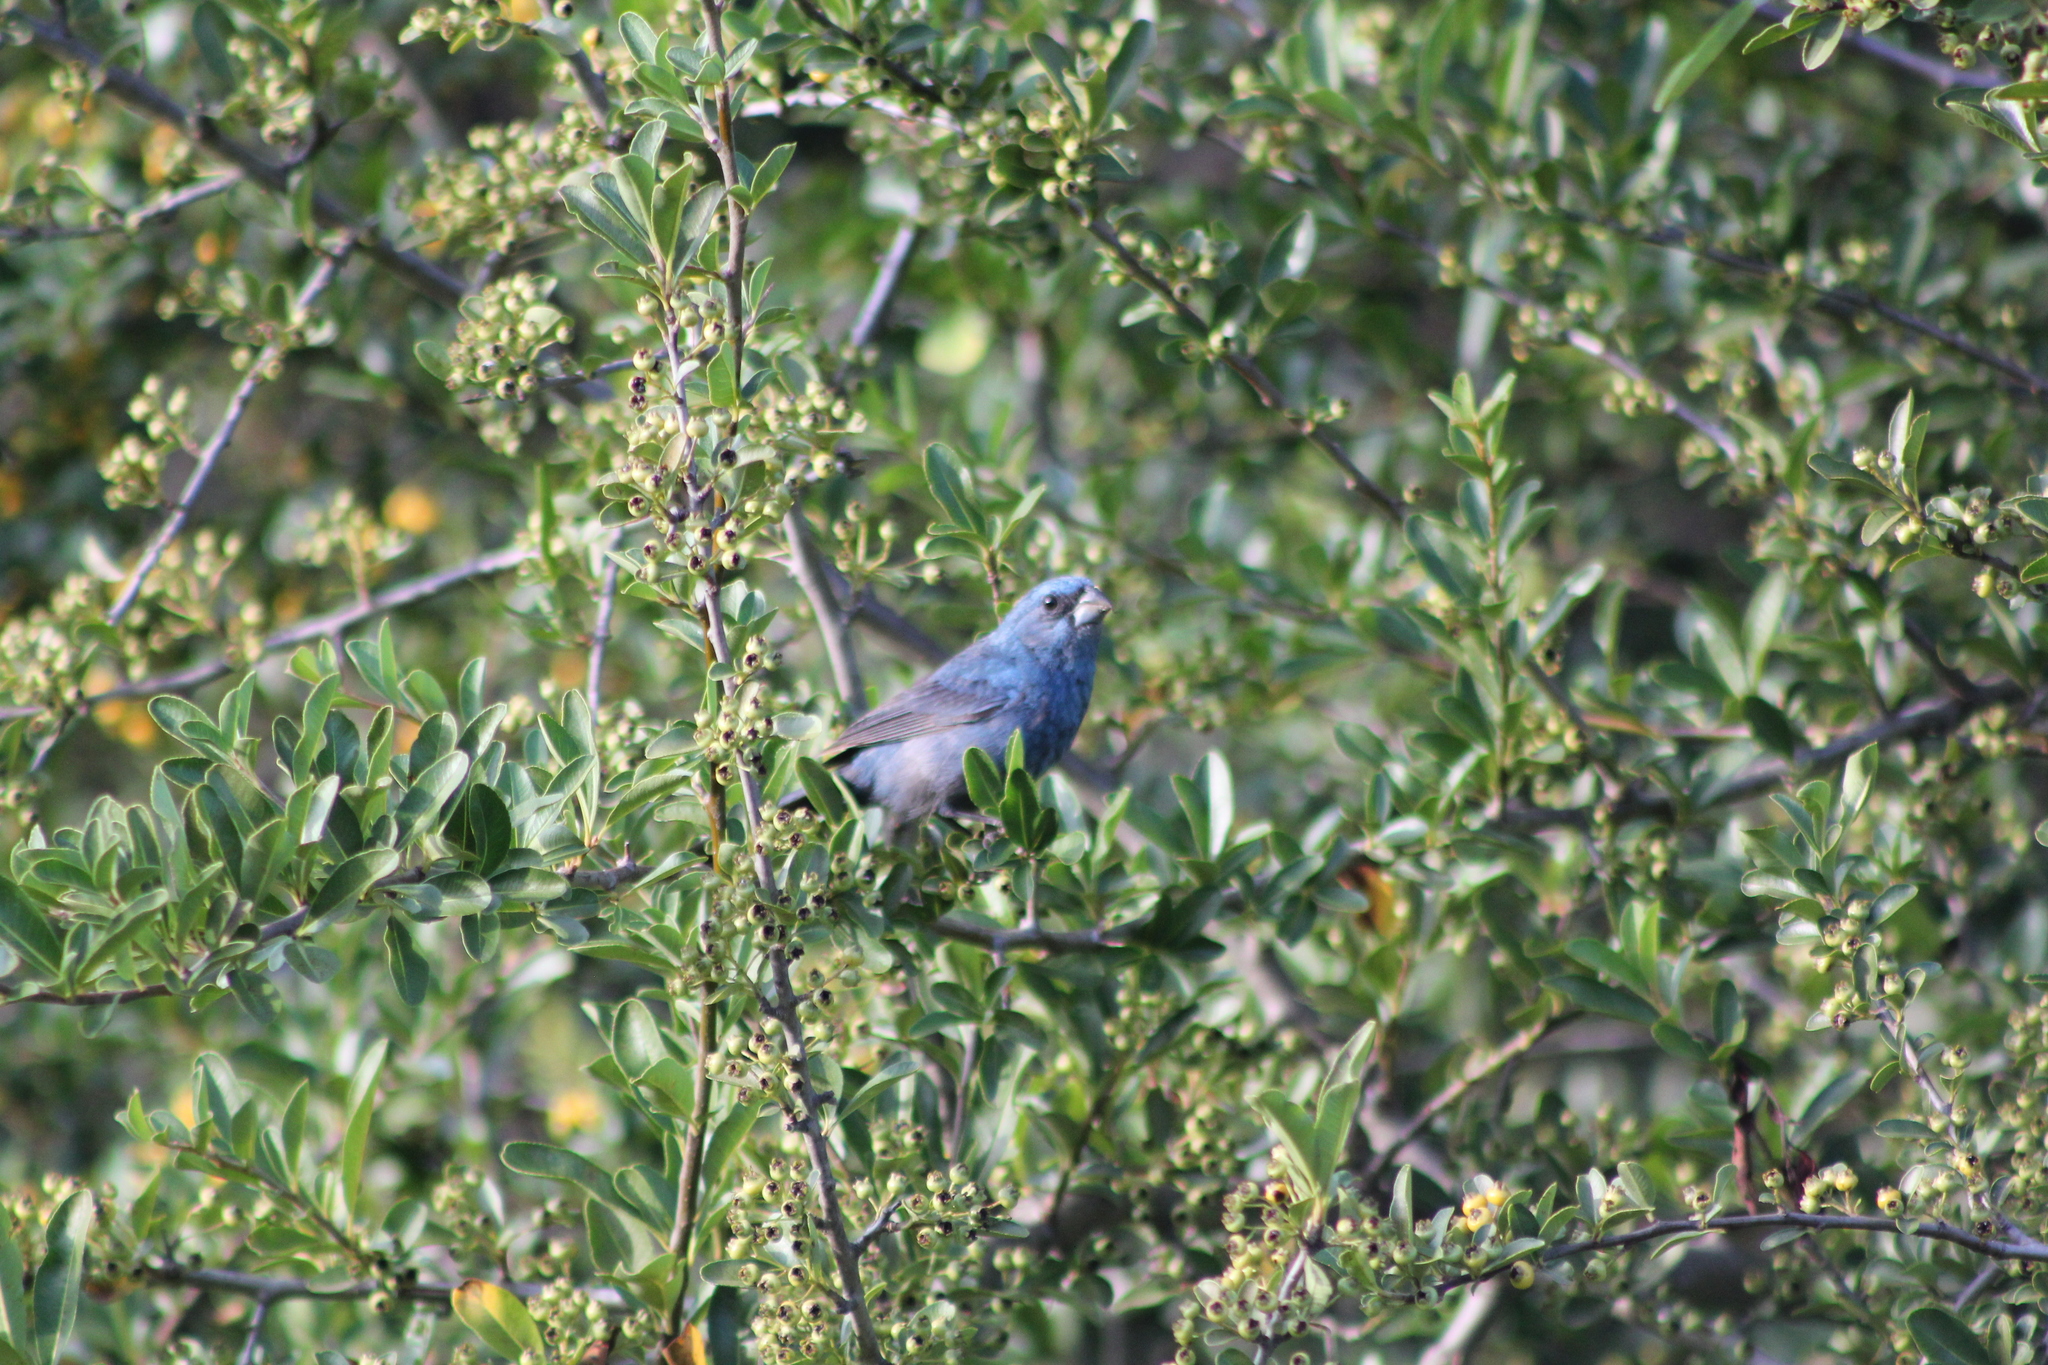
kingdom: Animalia
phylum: Chordata
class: Aves
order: Passeriformes
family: Cardinalidae
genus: Cyanoloxia
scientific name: Cyanoloxia glaucocaerulea
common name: Glaucous-blue grosbeak
